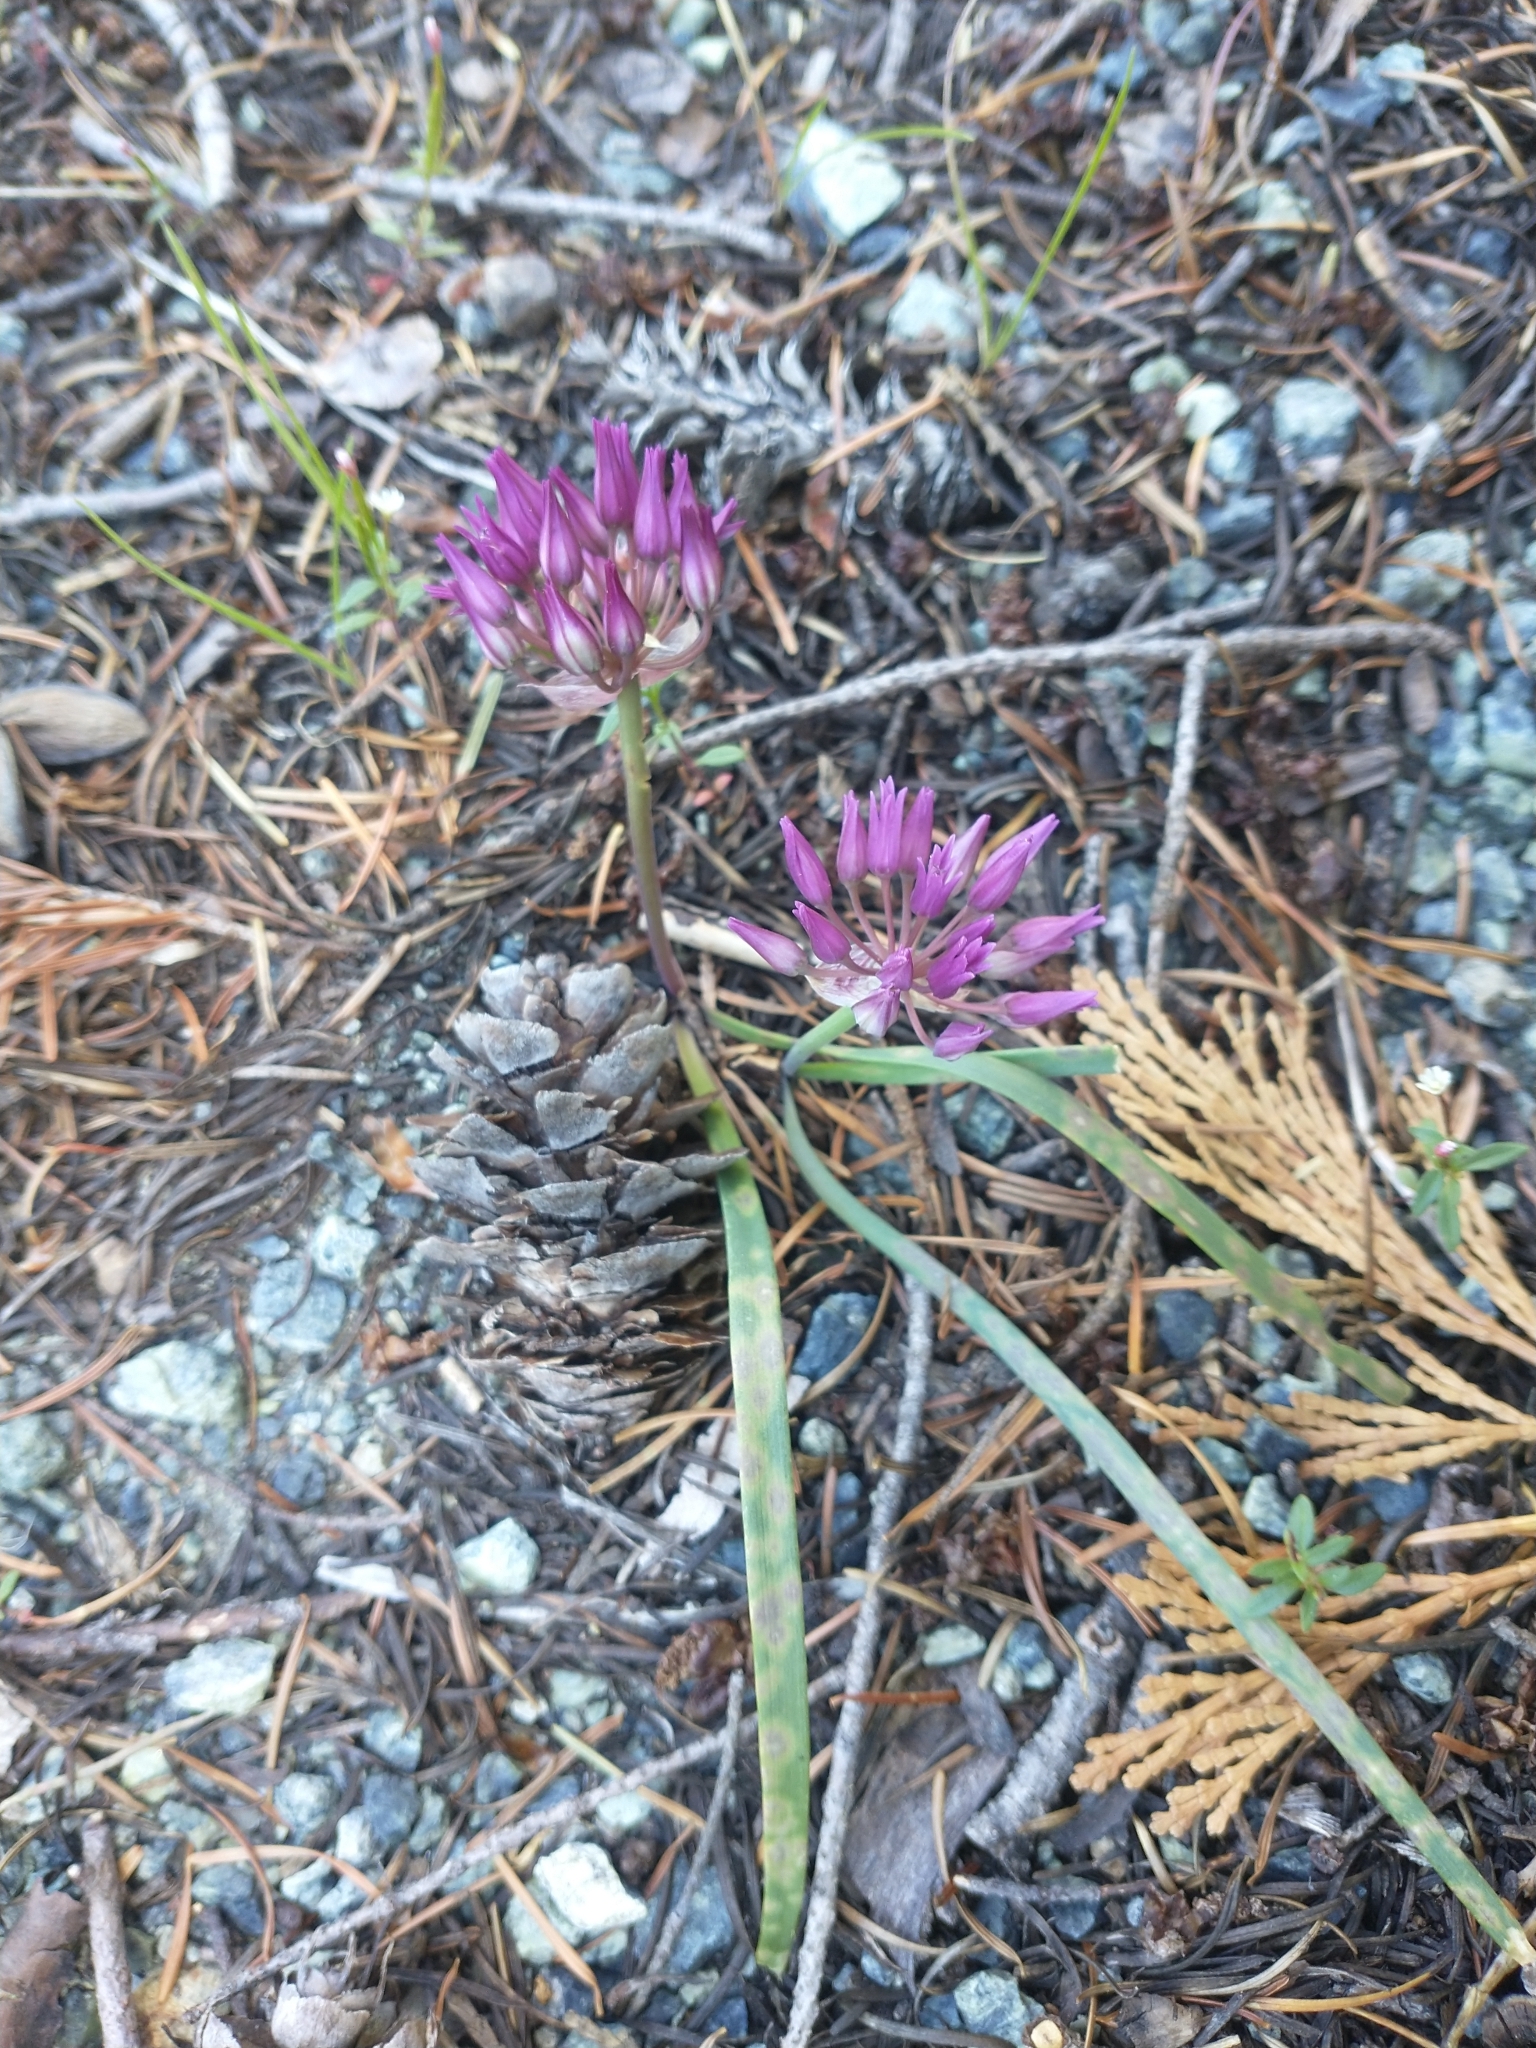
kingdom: Plantae
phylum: Tracheophyta
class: Liliopsida
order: Asparagales
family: Amaryllidaceae
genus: Allium
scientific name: Allium falcifolium
